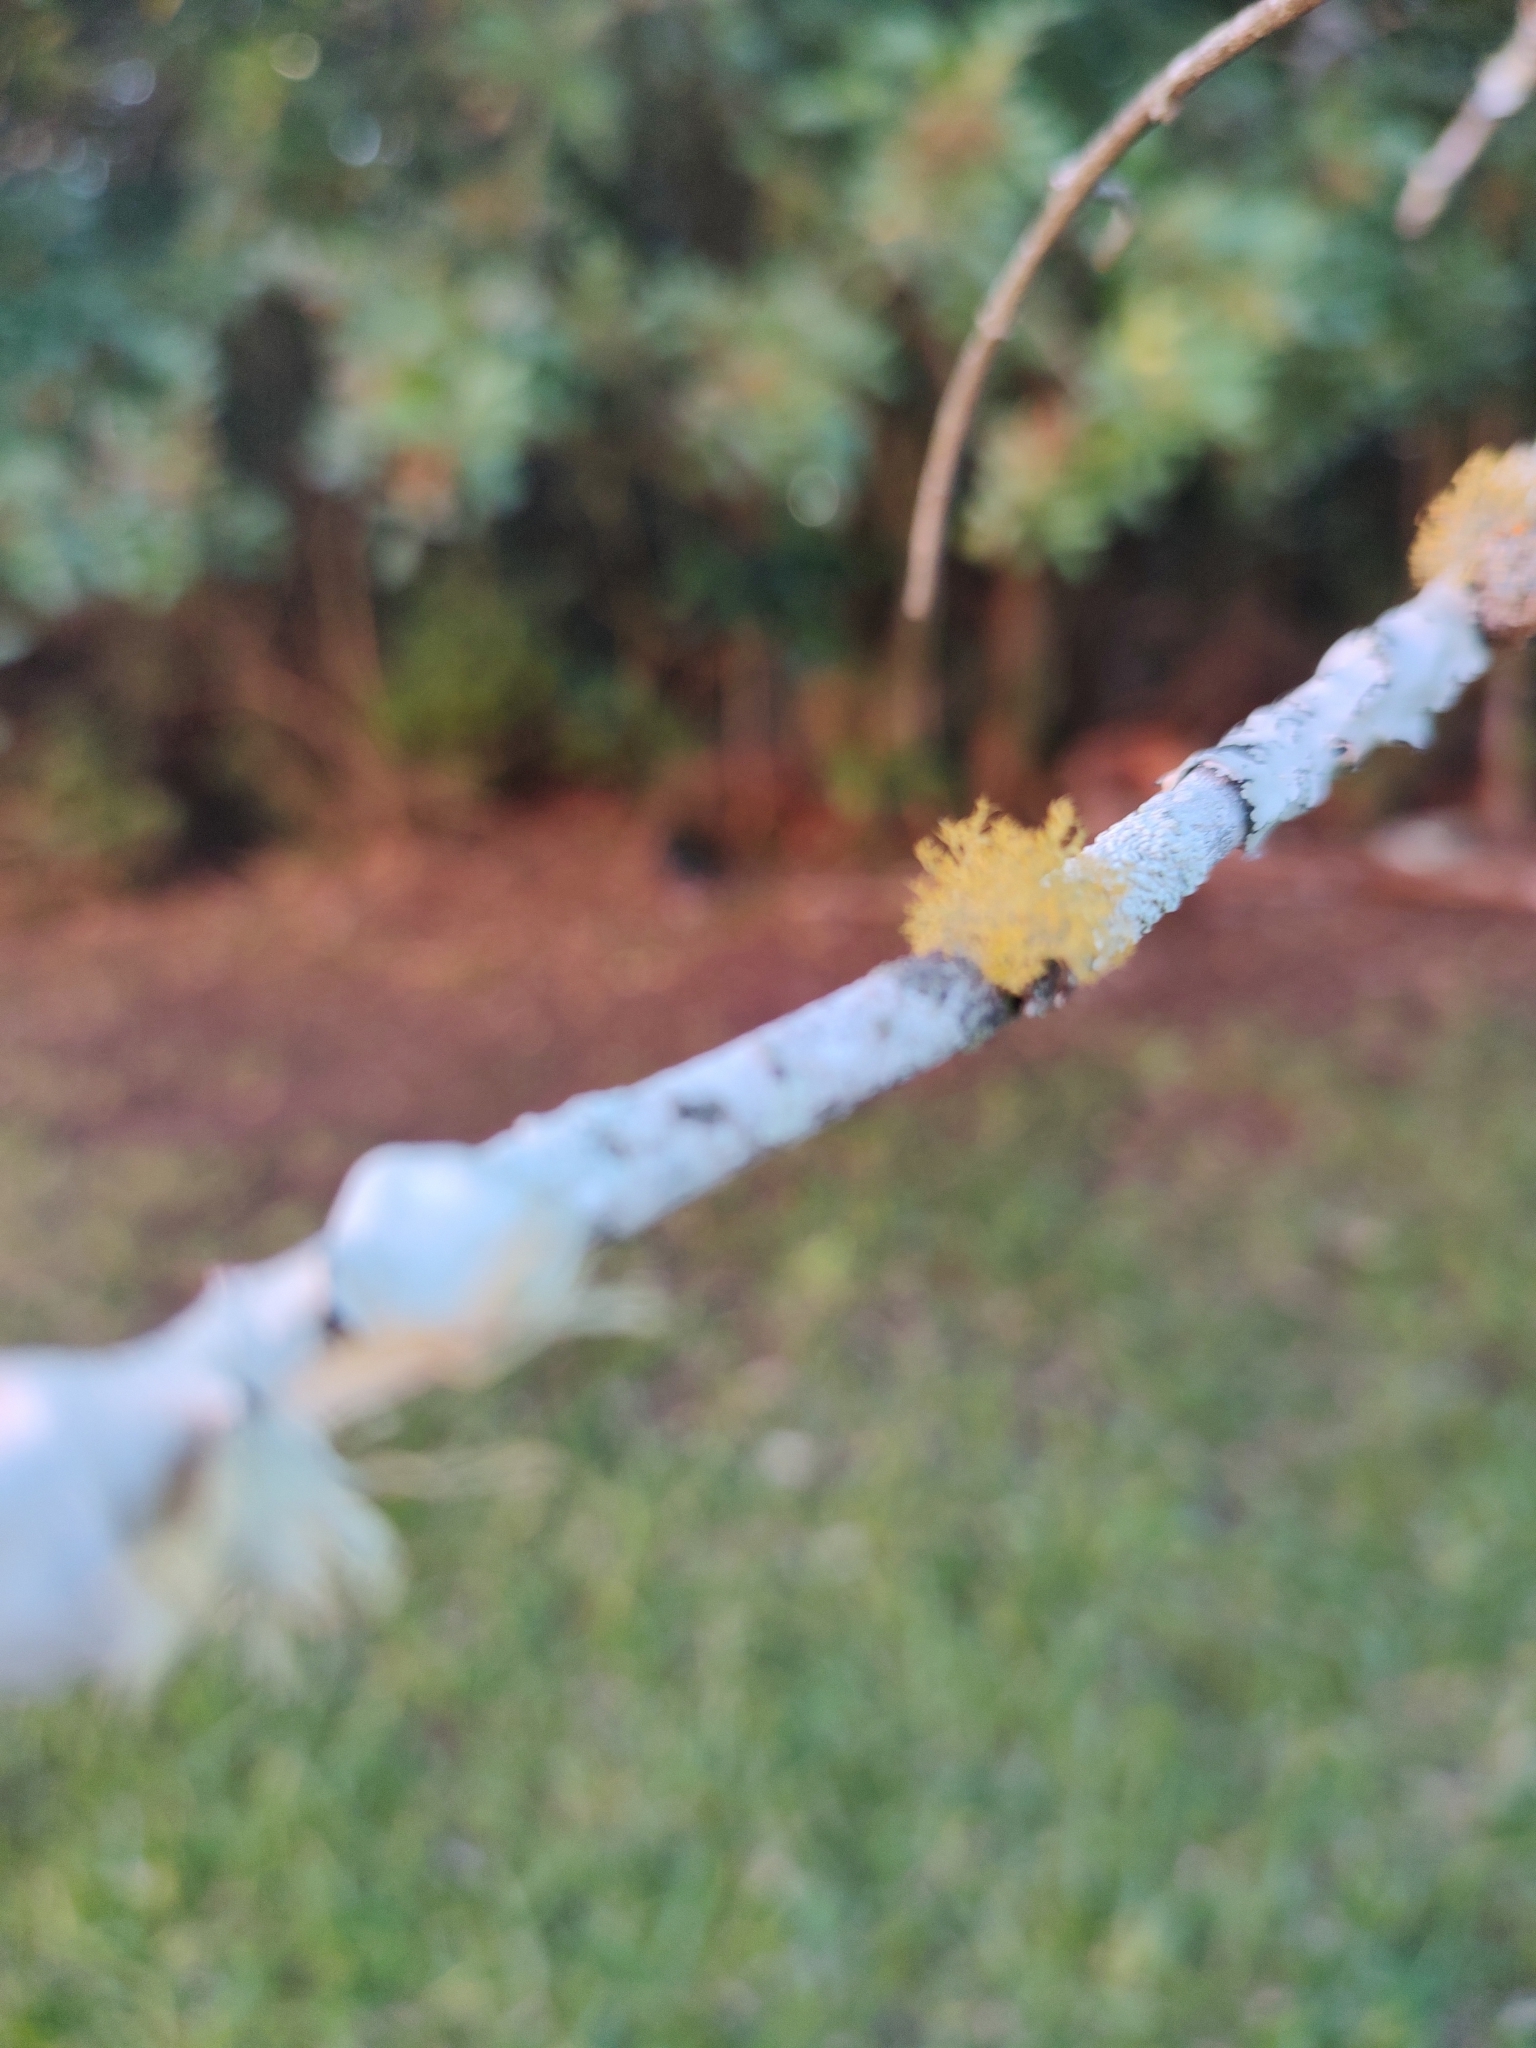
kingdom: Fungi
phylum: Ascomycota
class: Lecanoromycetes
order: Teloschistales
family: Teloschistaceae
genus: Teloschistes
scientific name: Teloschistes exilis
